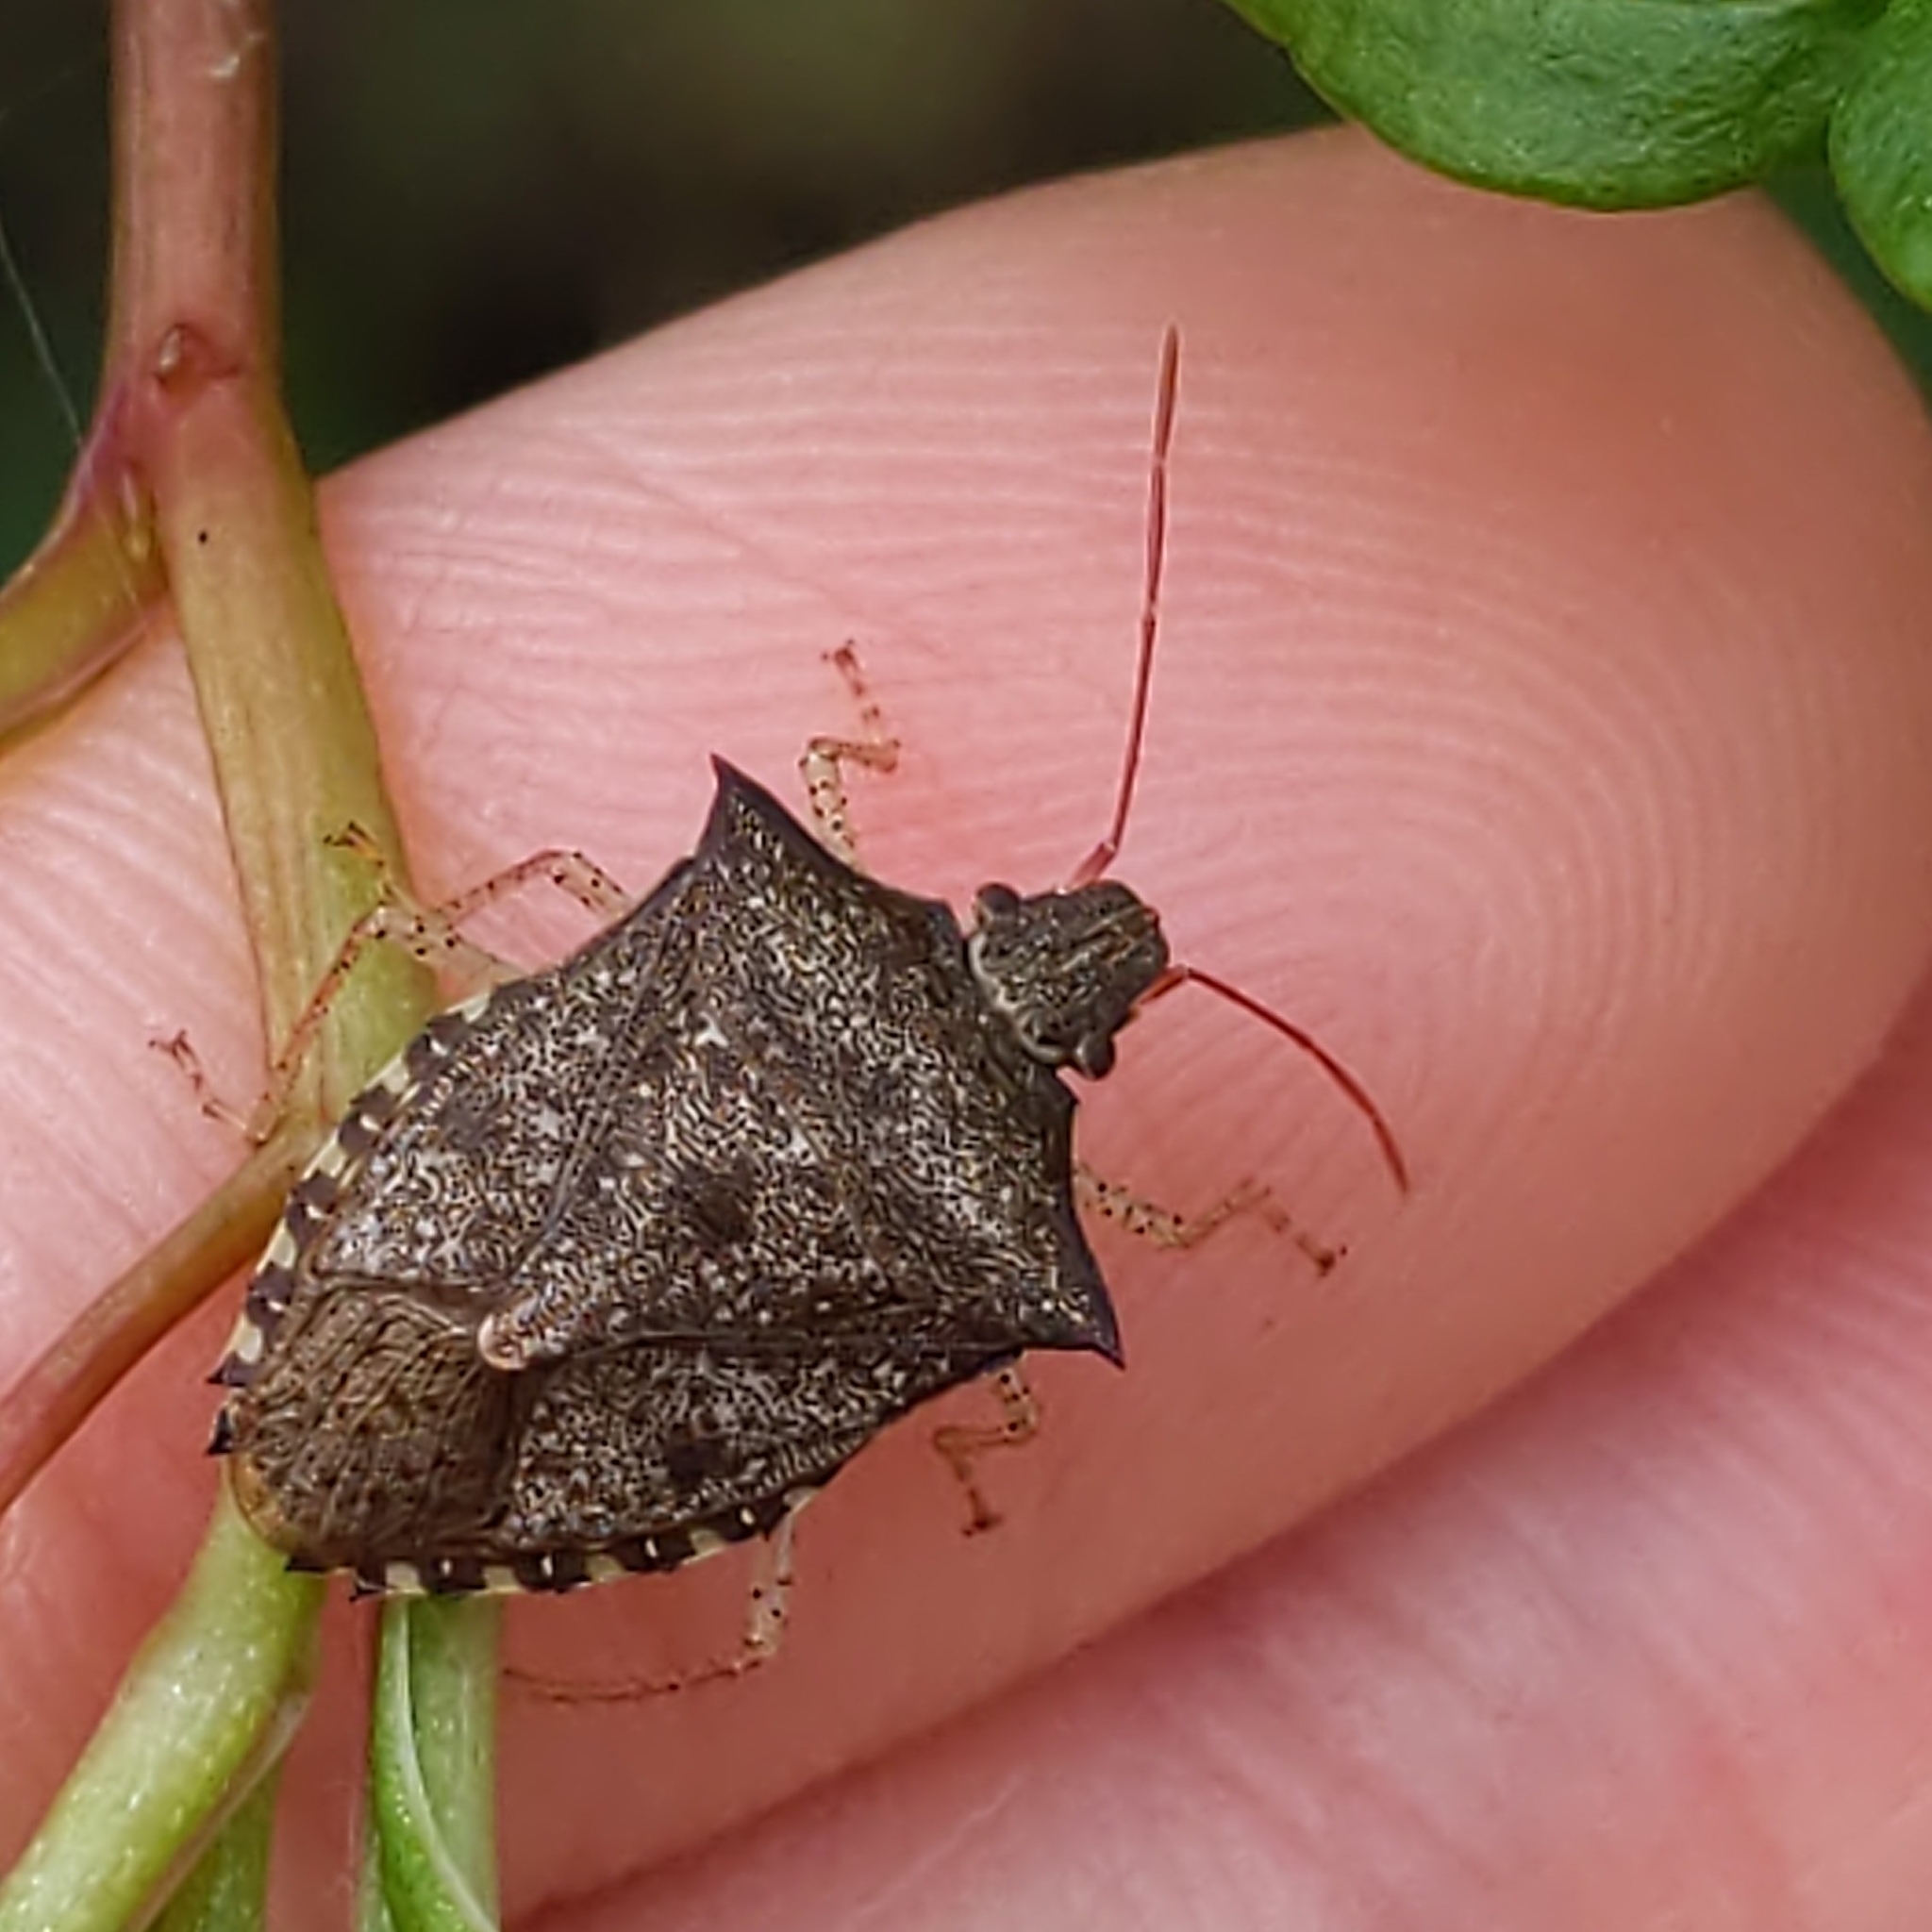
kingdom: Animalia
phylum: Arthropoda
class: Insecta
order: Hemiptera
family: Pentatomidae
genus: Euschistus
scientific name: Euschistus tristigmus
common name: Dusky stink bug
